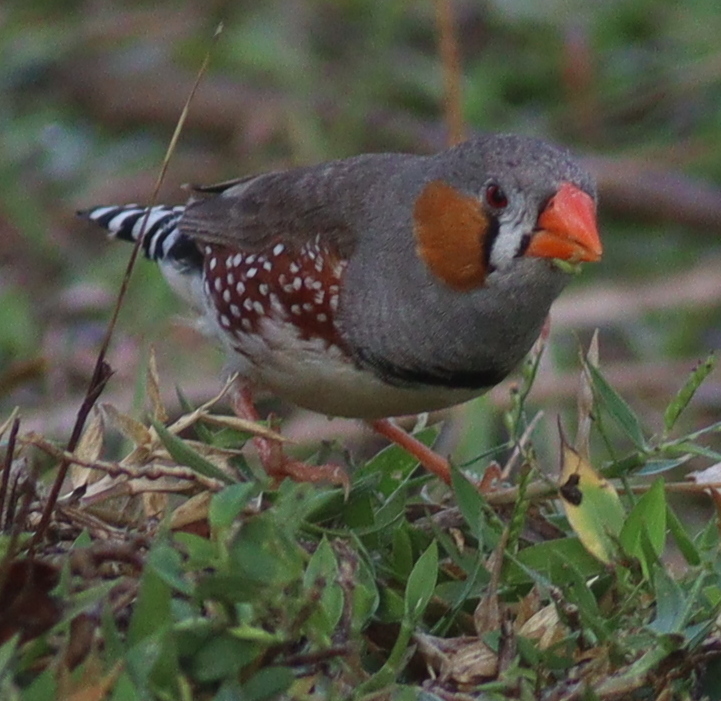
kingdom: Animalia
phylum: Chordata
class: Aves
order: Passeriformes
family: Estrildidae
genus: Taeniopygia
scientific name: Taeniopygia guttata
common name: Zebra finch
